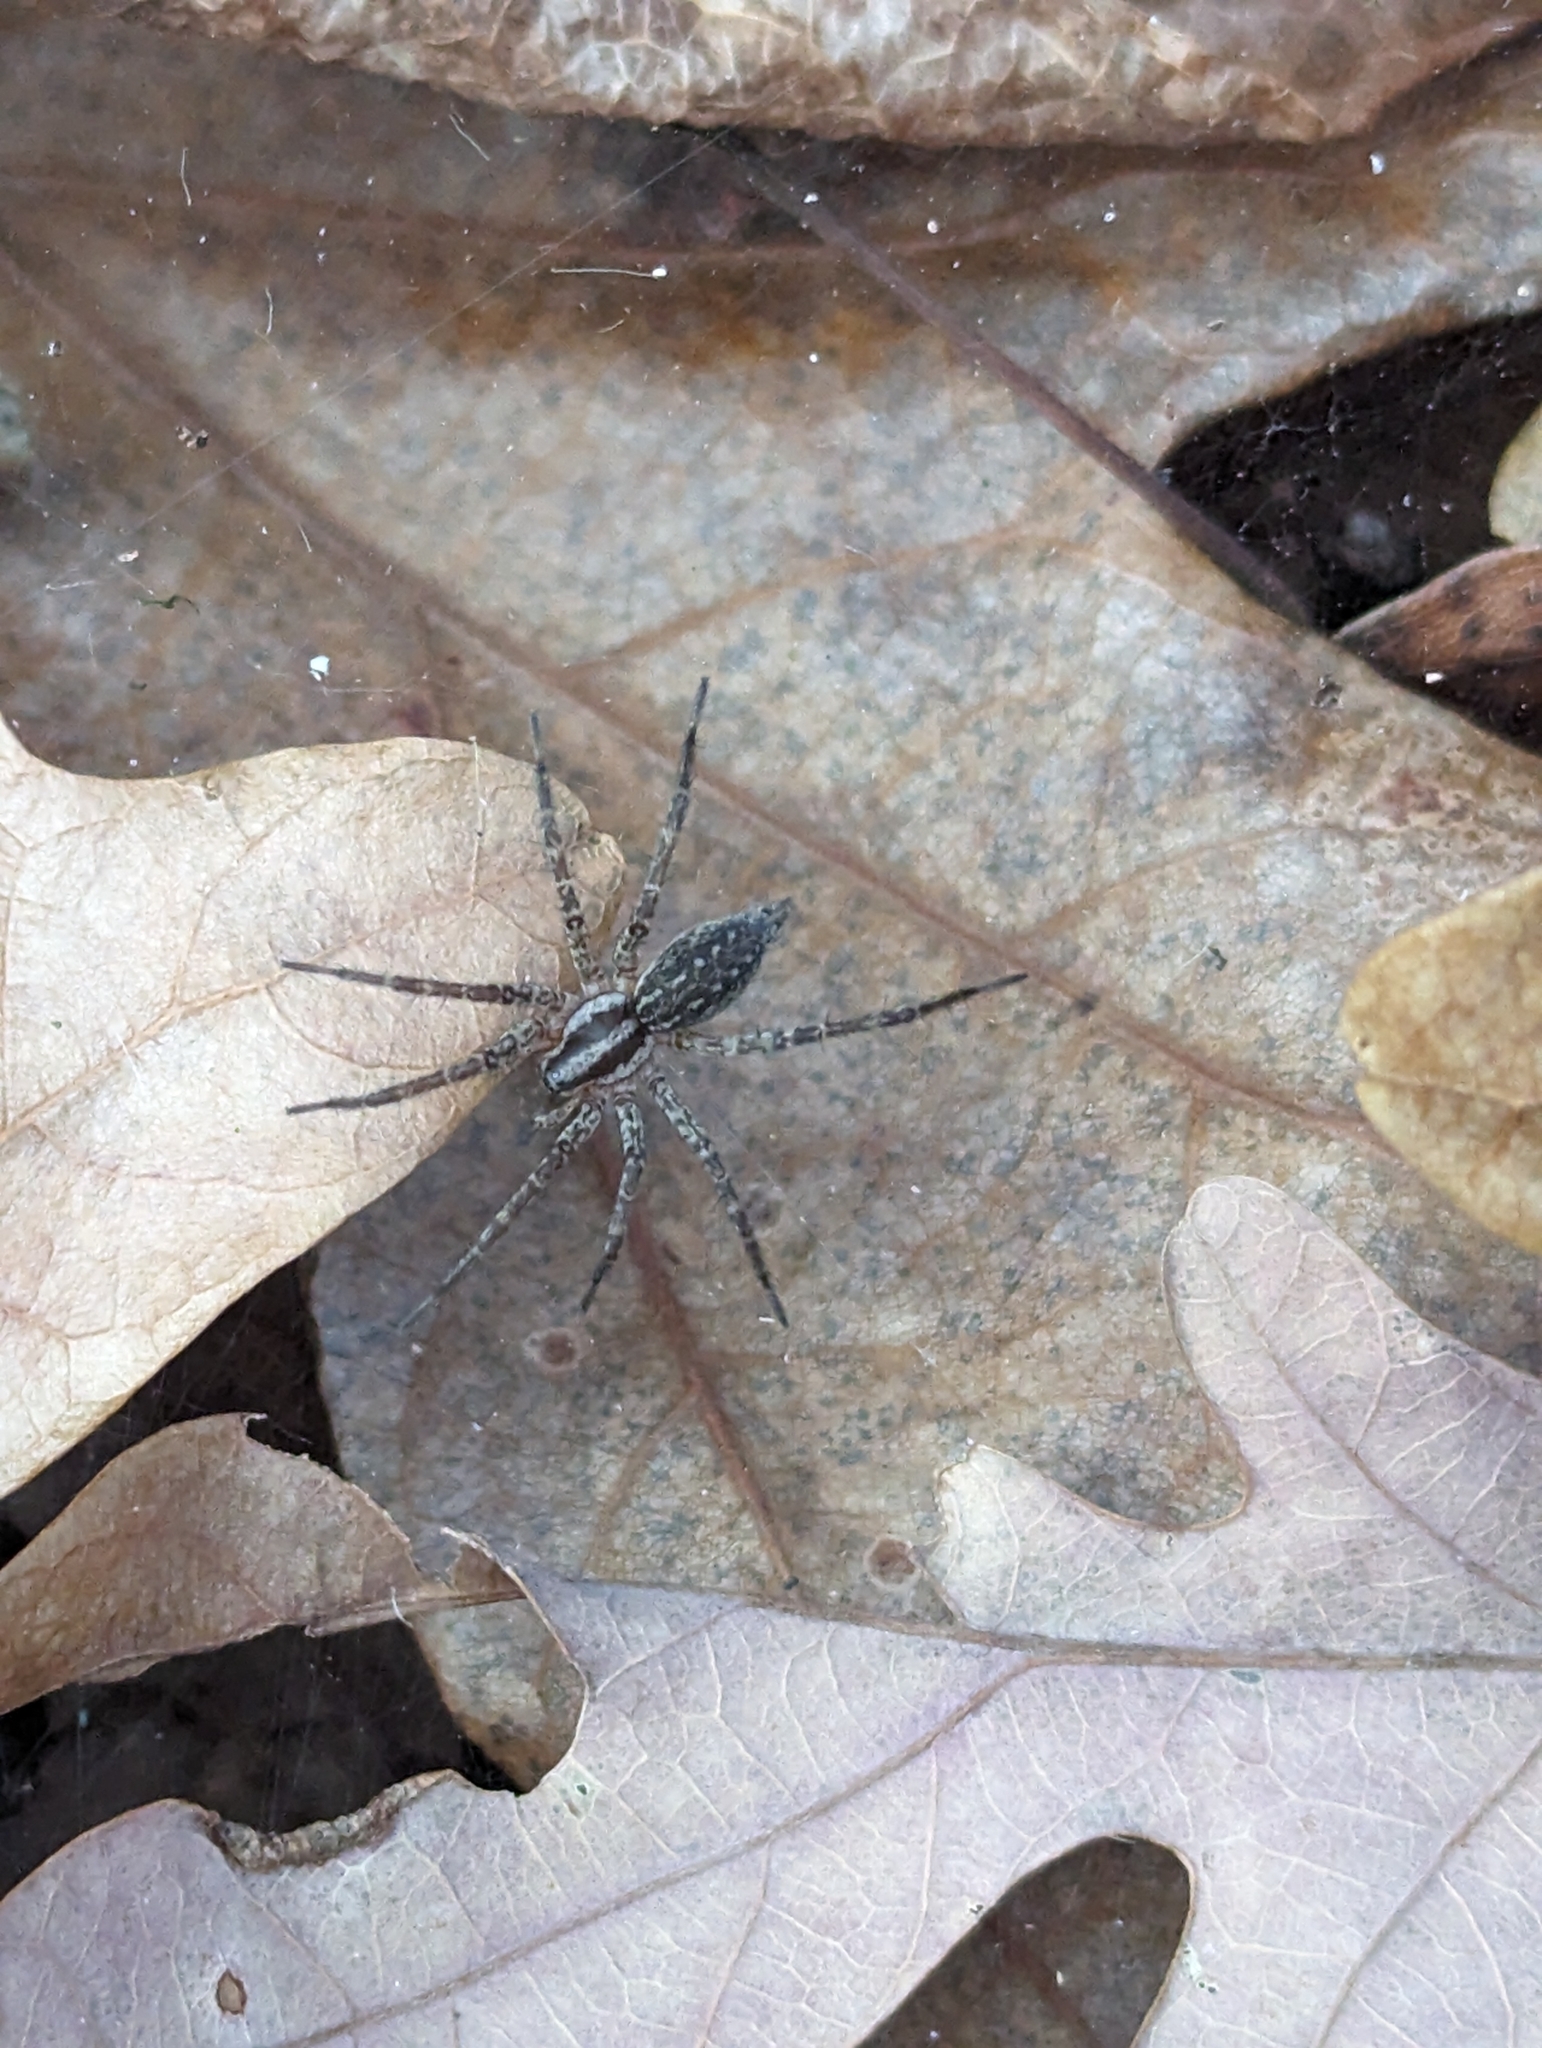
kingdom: Animalia
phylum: Arthropoda
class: Arachnida
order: Araneae
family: Agelenidae
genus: Agelenopsis
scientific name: Agelenopsis
